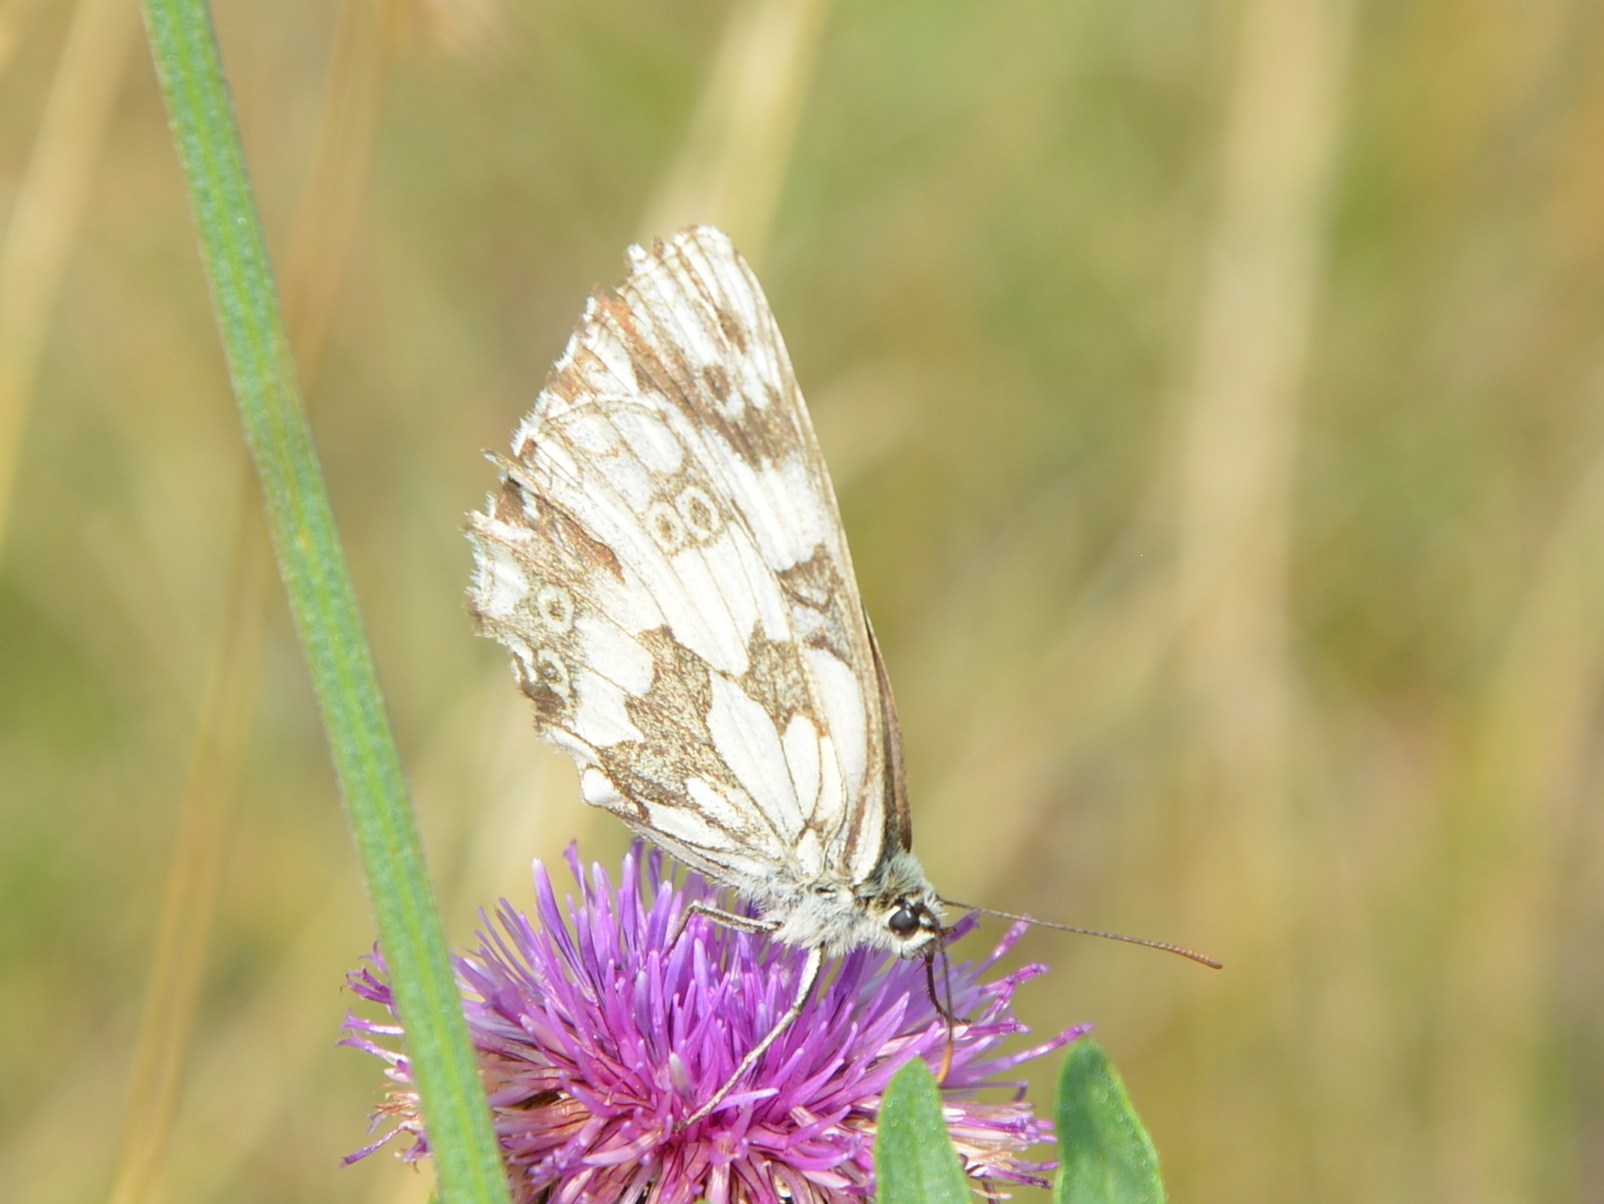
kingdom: Animalia
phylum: Arthropoda
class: Insecta
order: Lepidoptera
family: Nymphalidae
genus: Melanargia
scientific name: Melanargia galathea
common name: Marbled white
